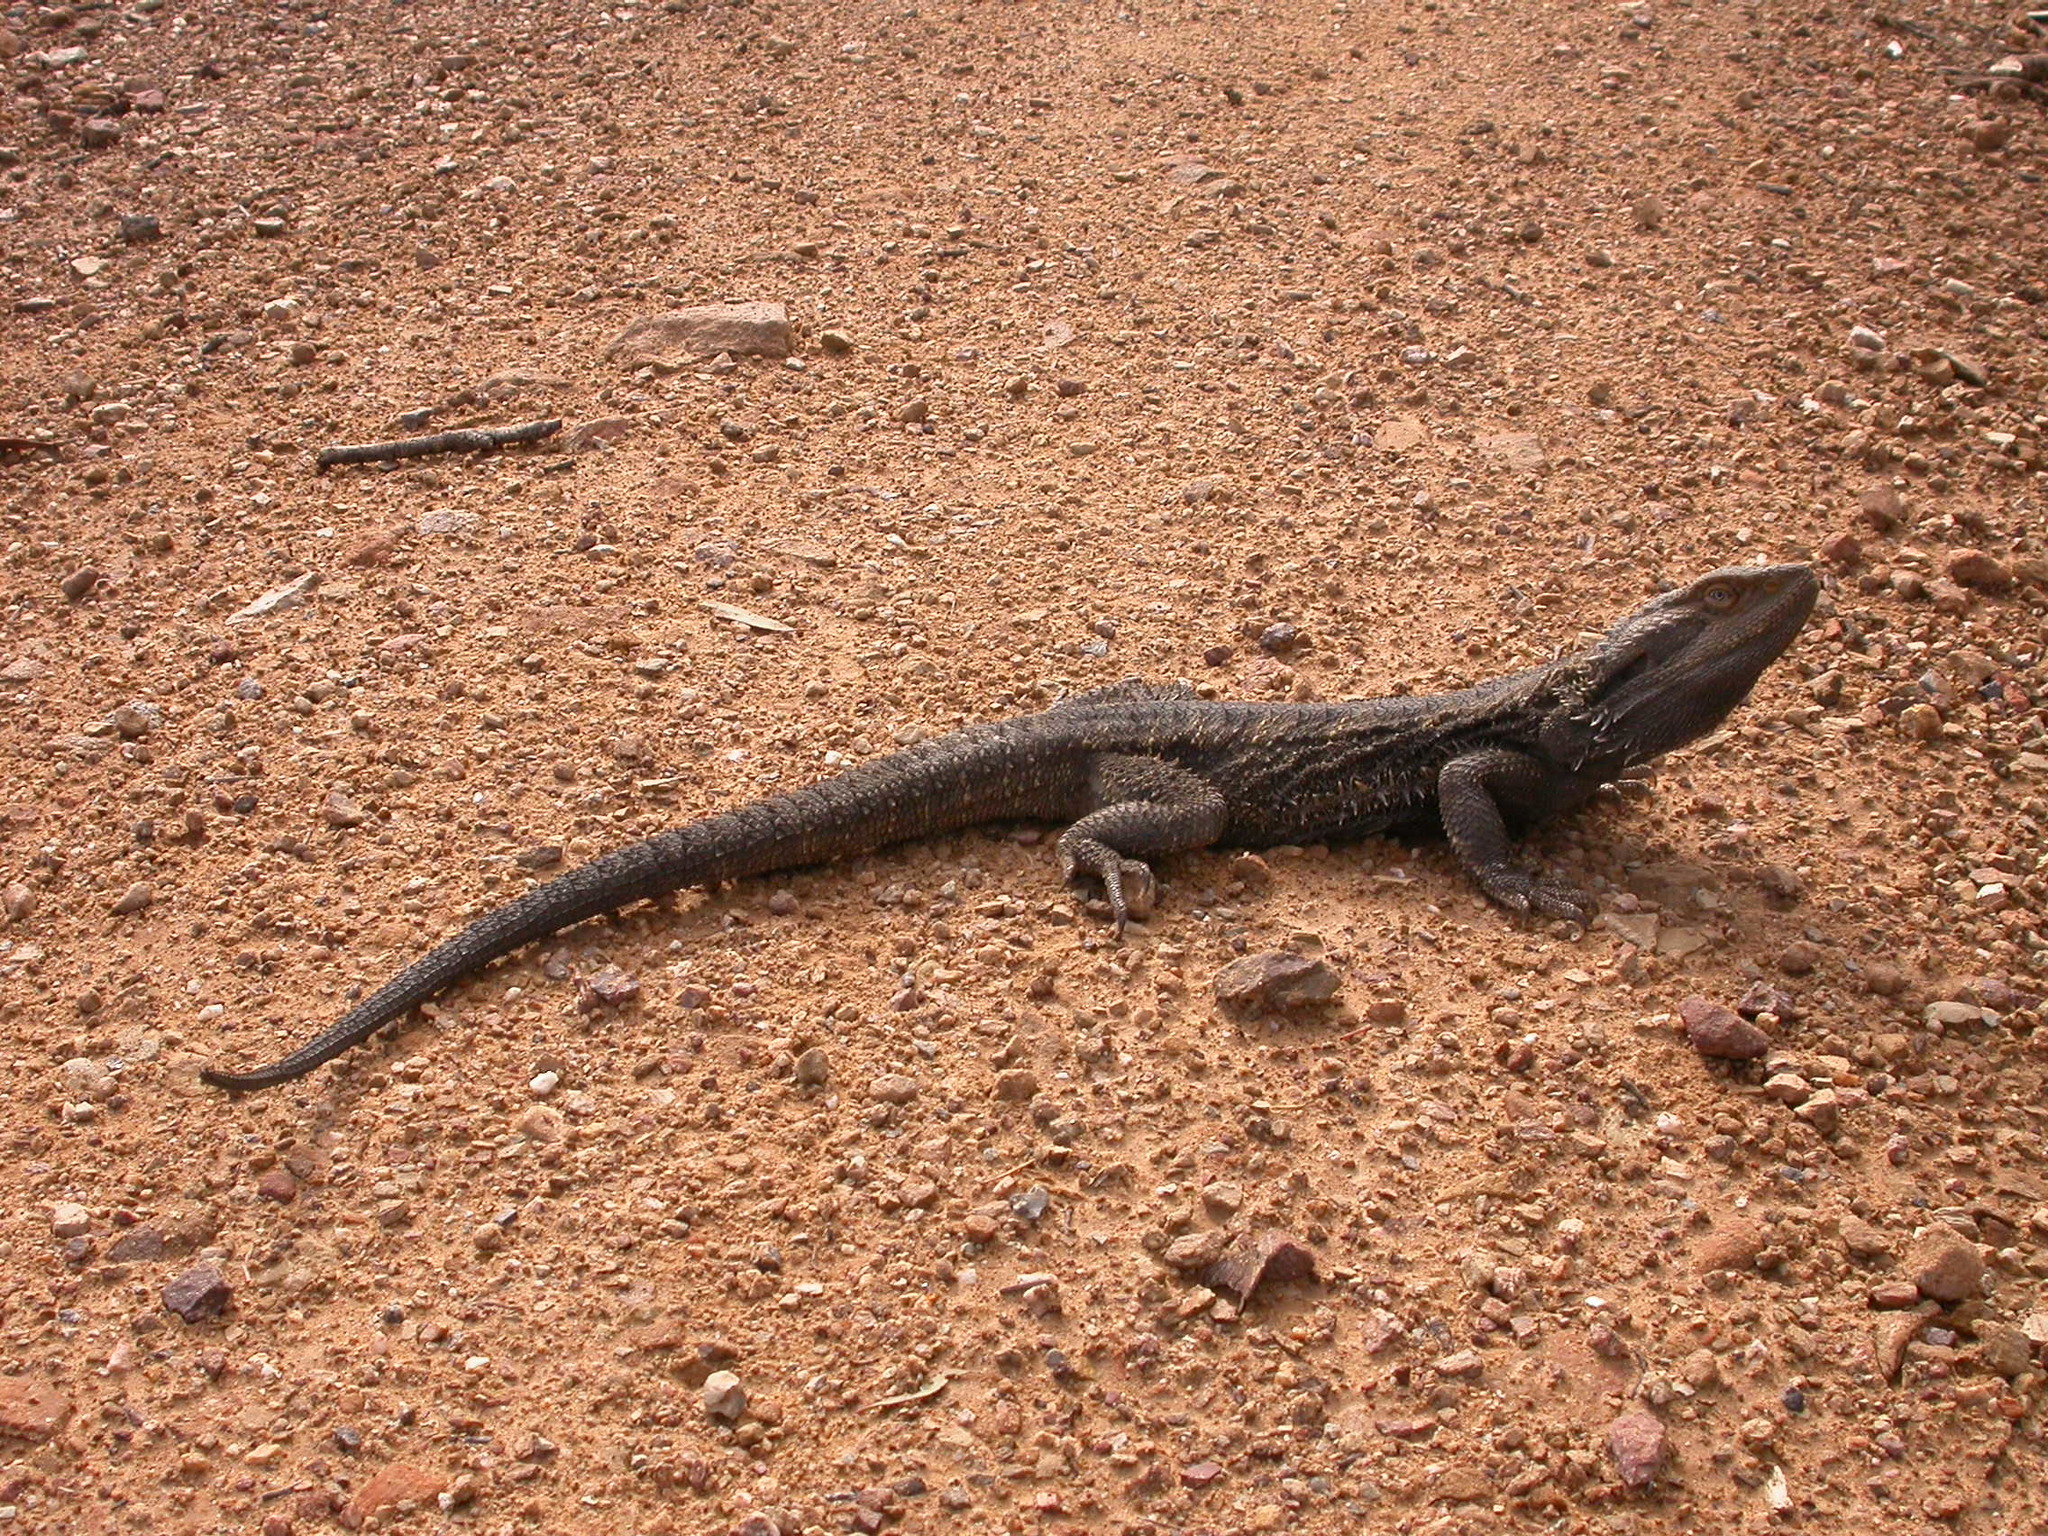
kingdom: Animalia
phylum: Chordata
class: Squamata
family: Agamidae
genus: Pogona
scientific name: Pogona barbata
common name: Bearded dragon
